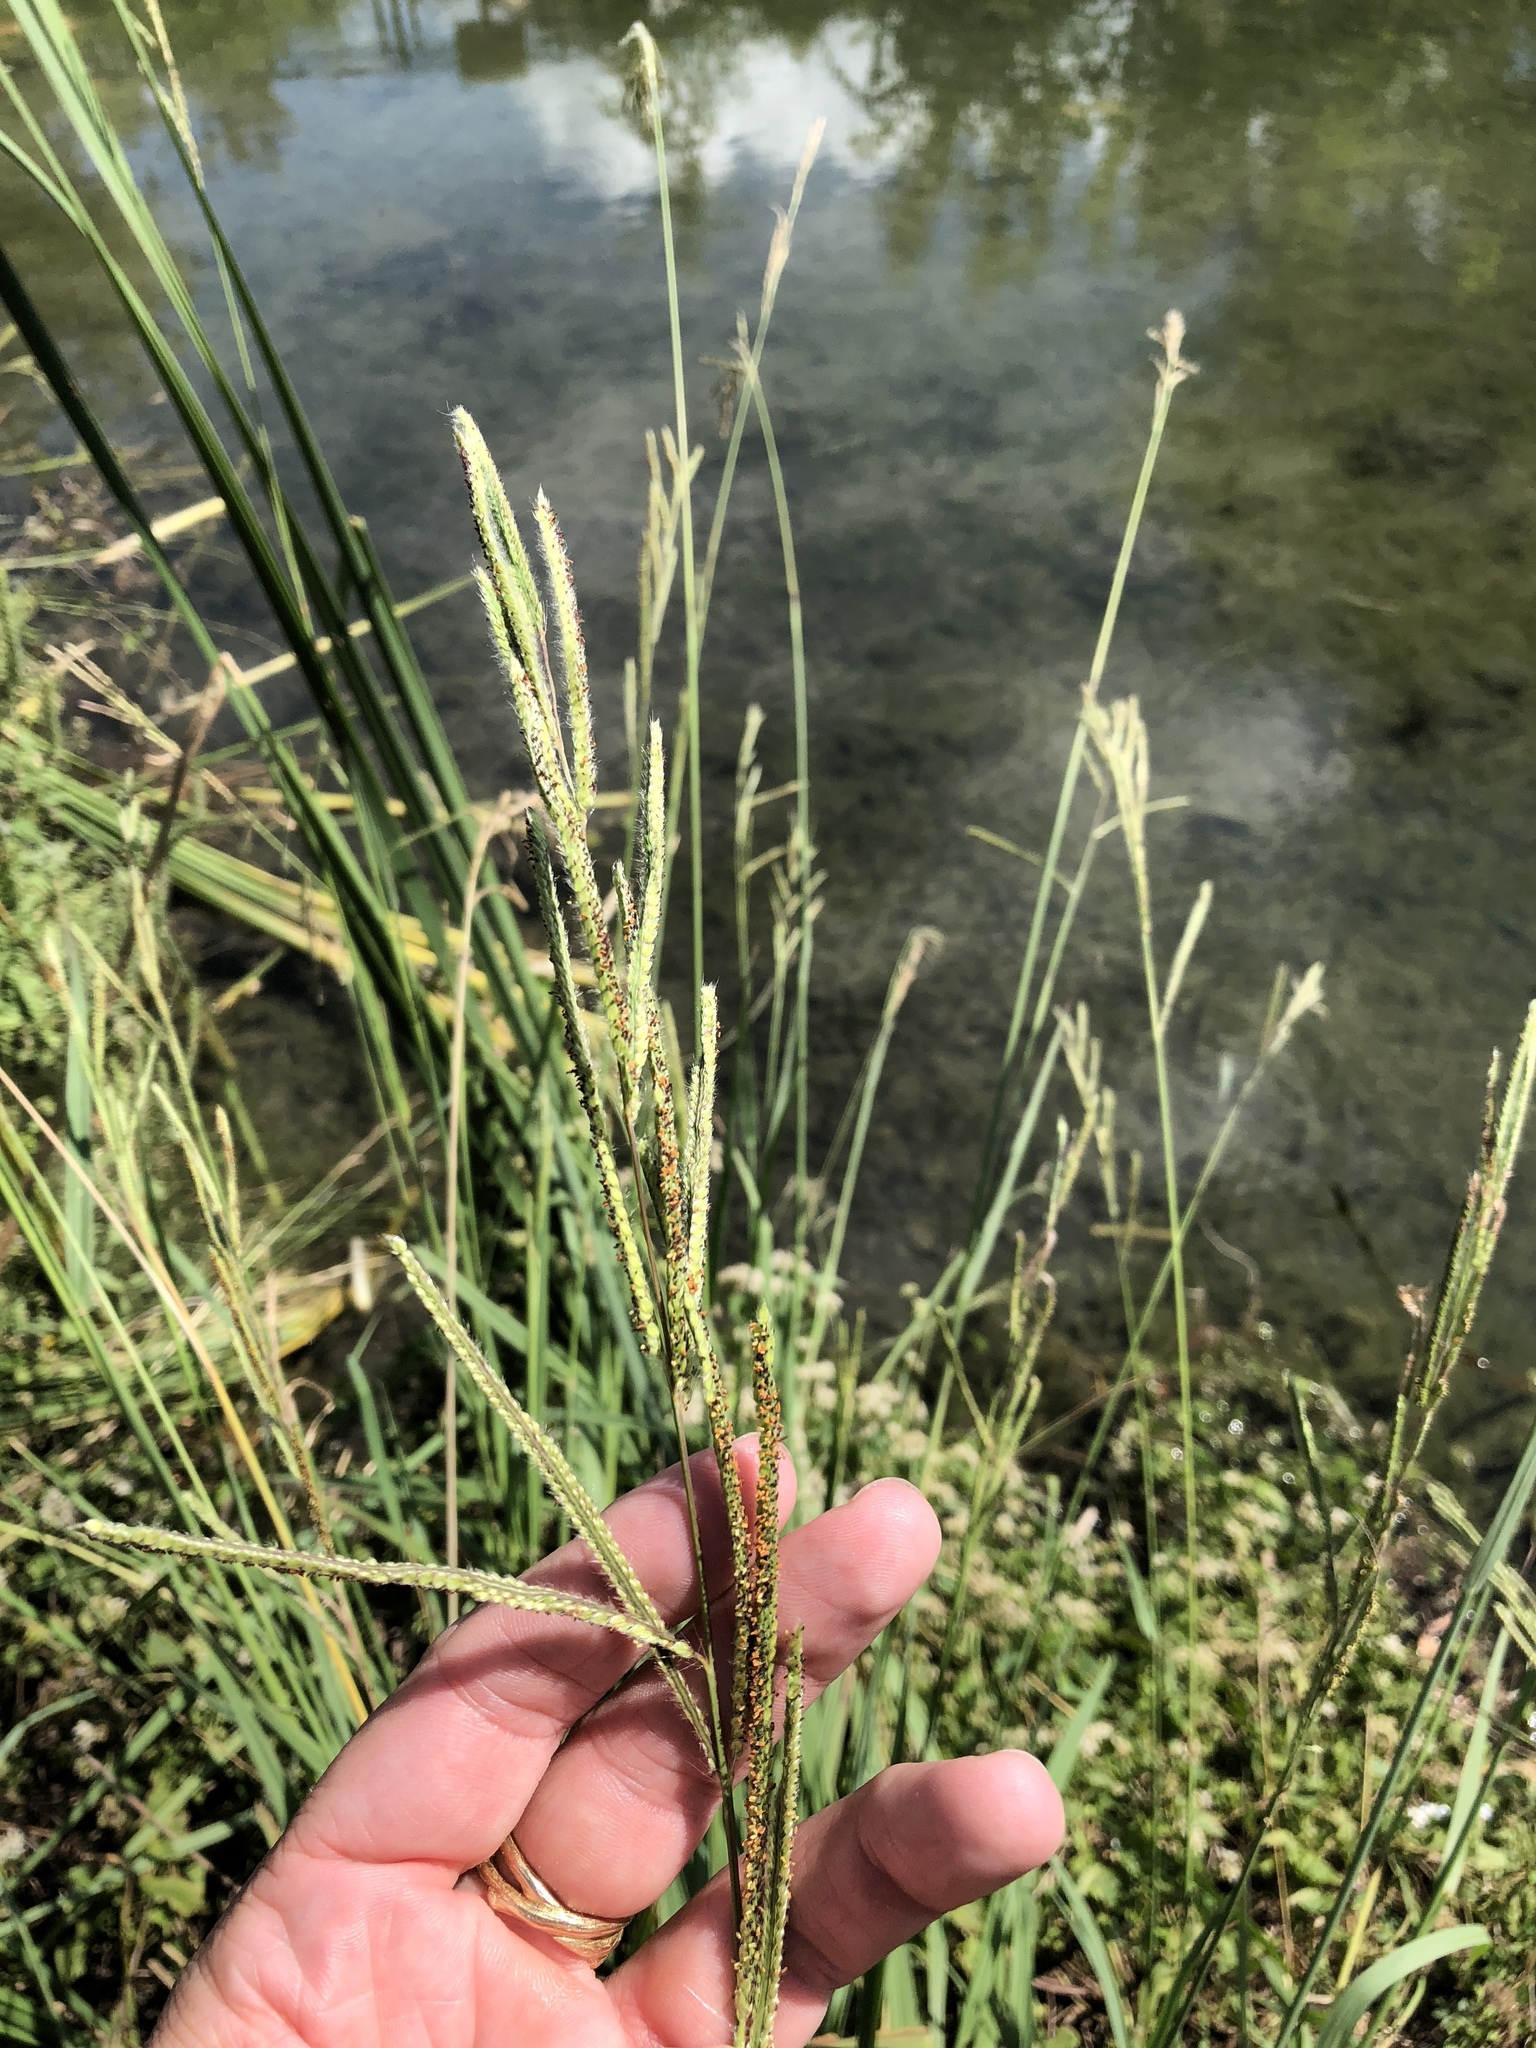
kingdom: Plantae
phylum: Tracheophyta
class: Liliopsida
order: Poales
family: Poaceae
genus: Paspalum
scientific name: Paspalum urvillei
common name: Vasey's grass
